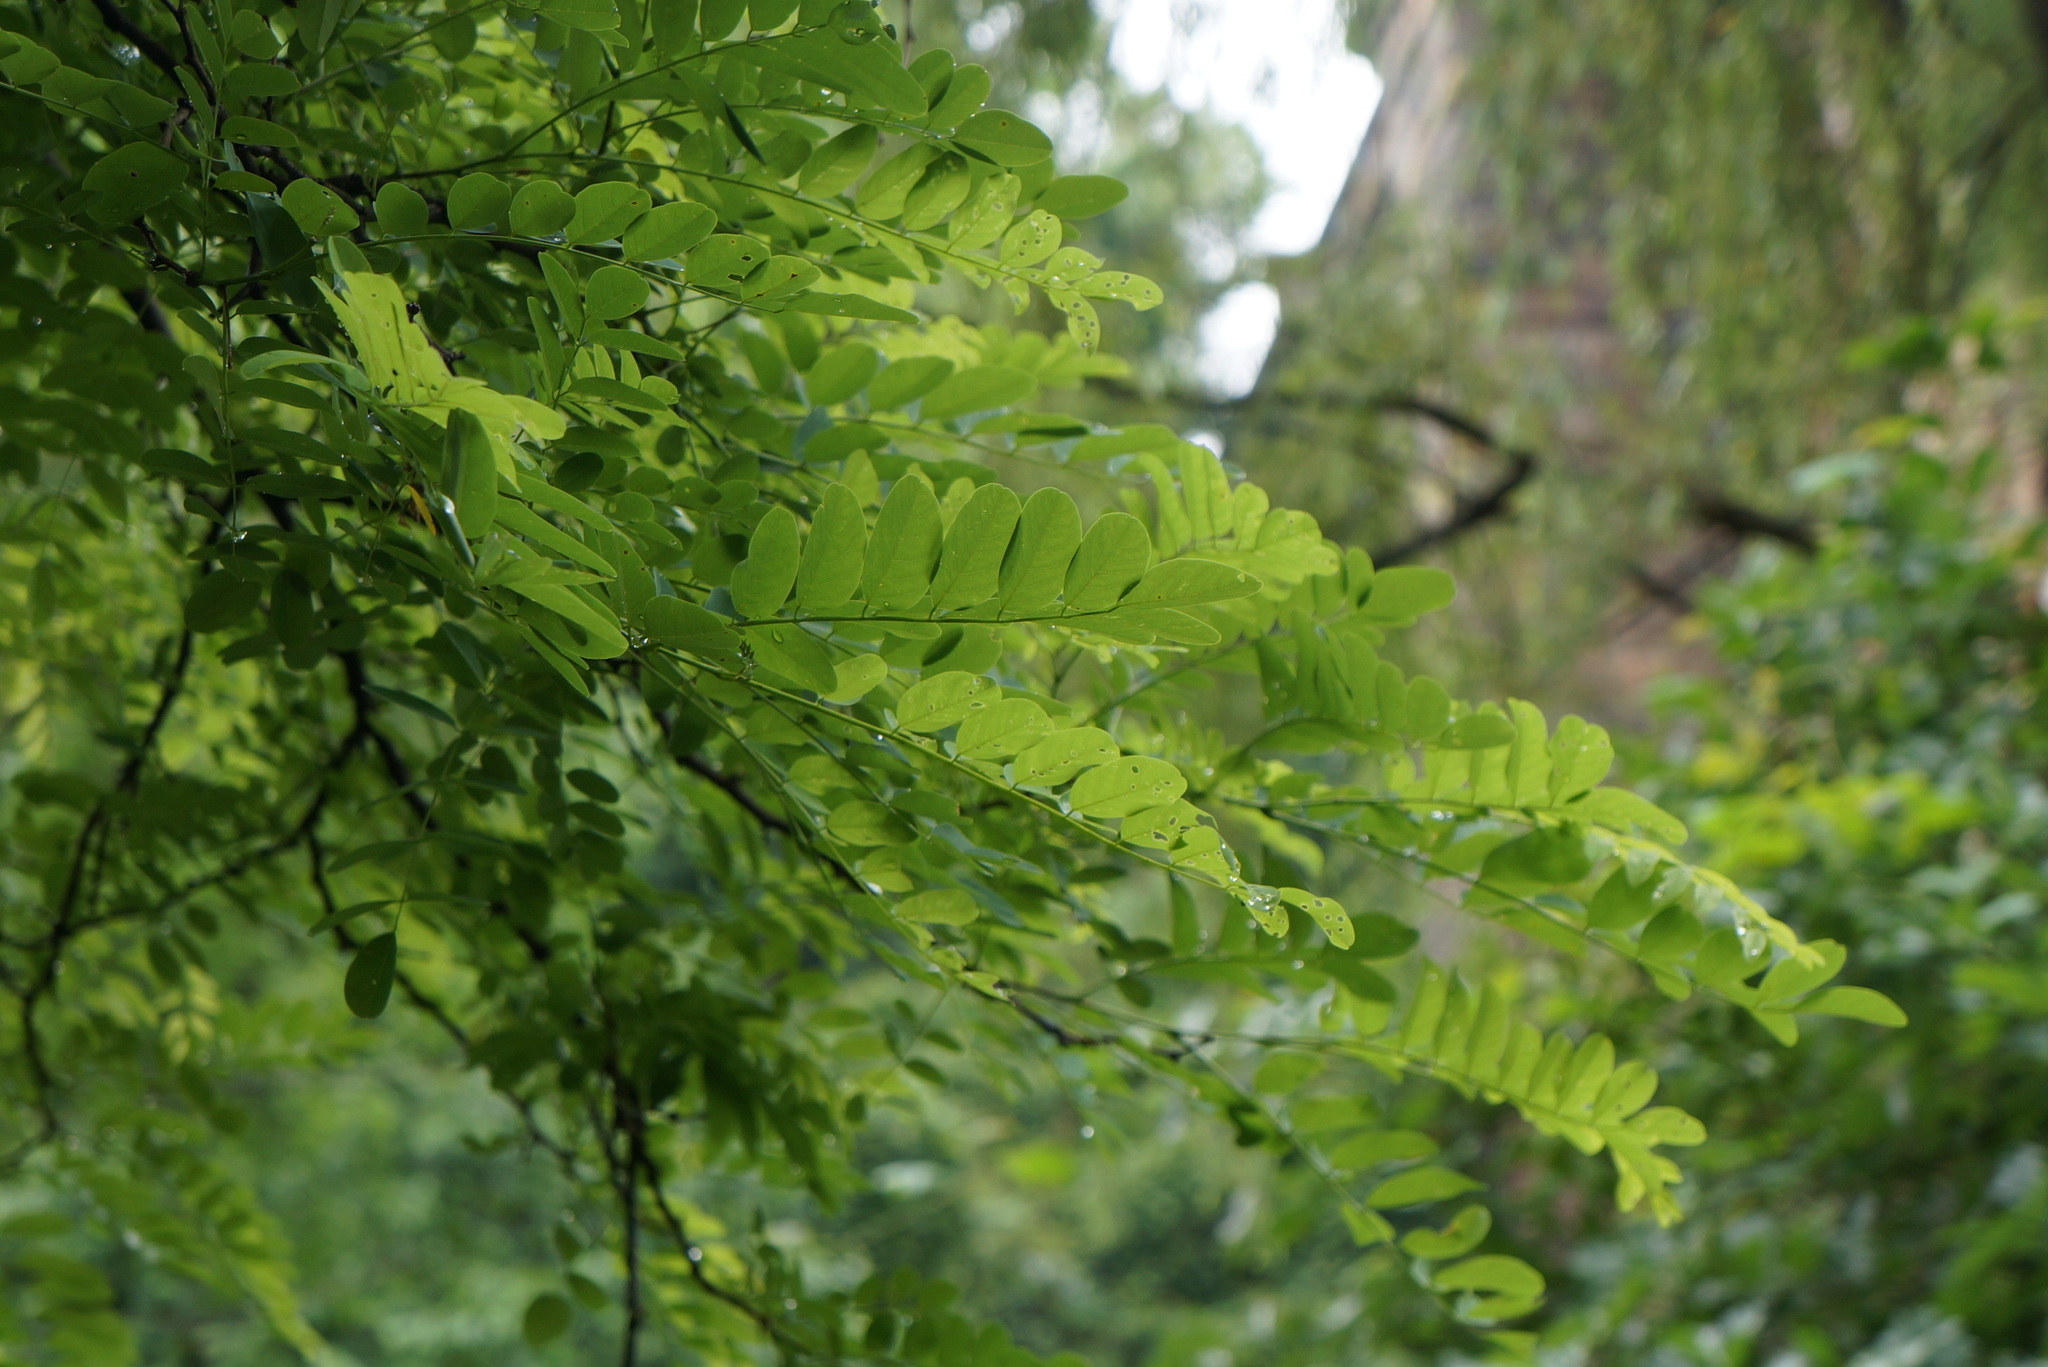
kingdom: Plantae
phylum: Tracheophyta
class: Magnoliopsida
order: Fabales
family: Fabaceae
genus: Robinia
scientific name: Robinia pseudoacacia
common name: Black locust
